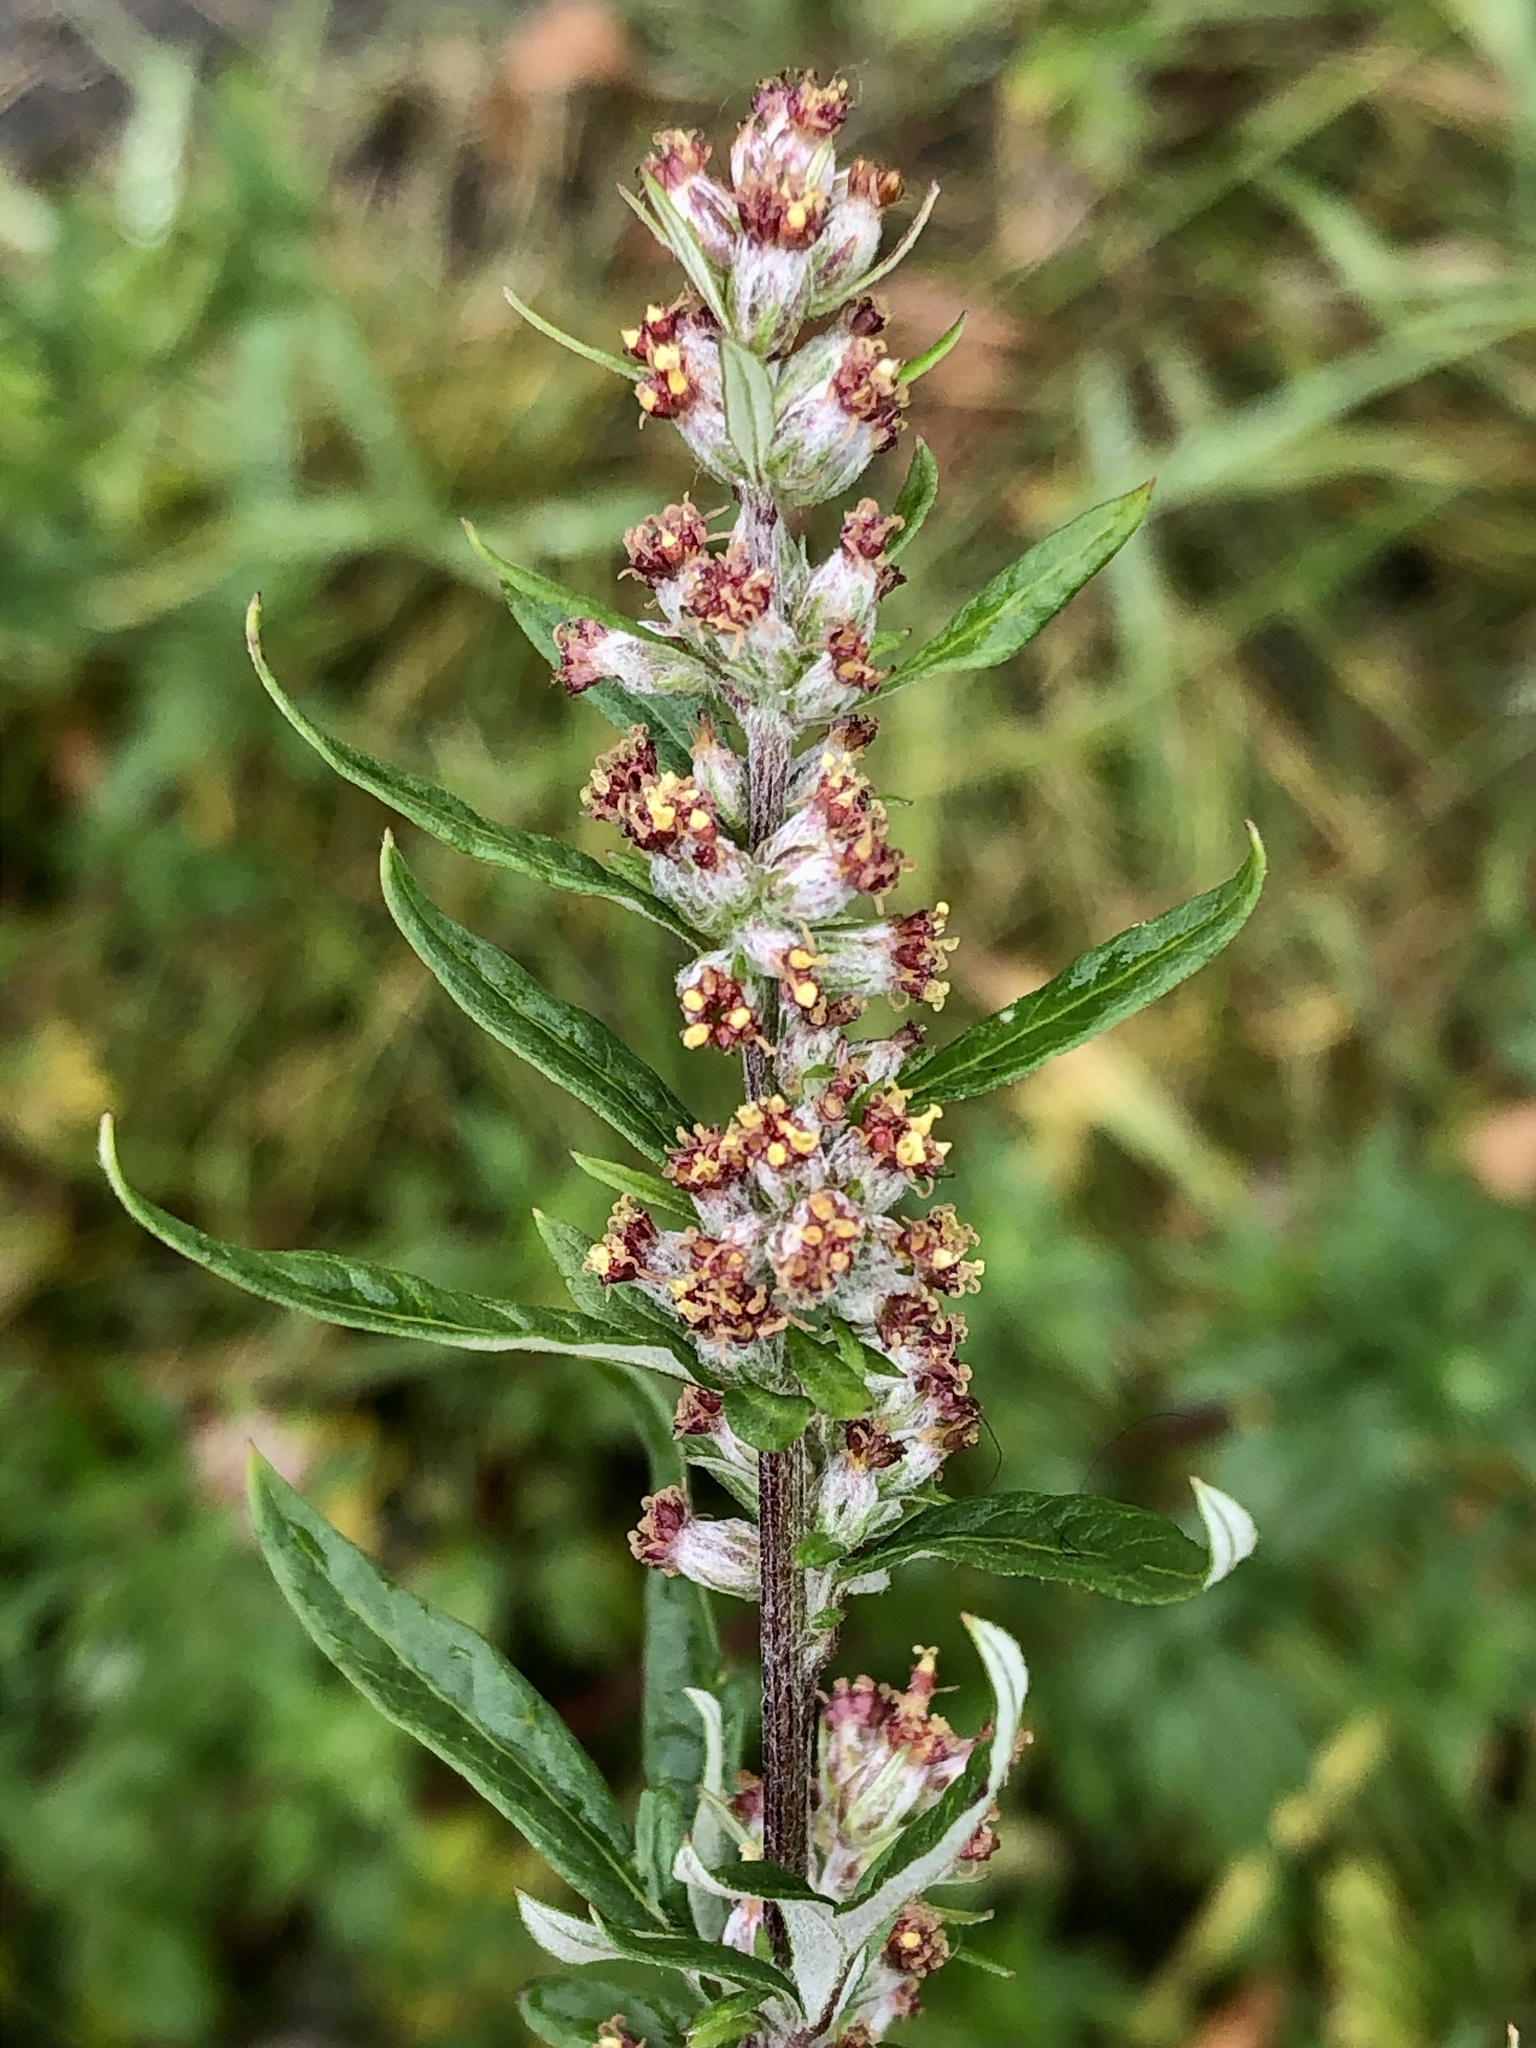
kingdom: Plantae
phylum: Tracheophyta
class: Magnoliopsida
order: Asterales
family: Asteraceae
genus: Artemisia
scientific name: Artemisia vulgaris
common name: Mugwort
